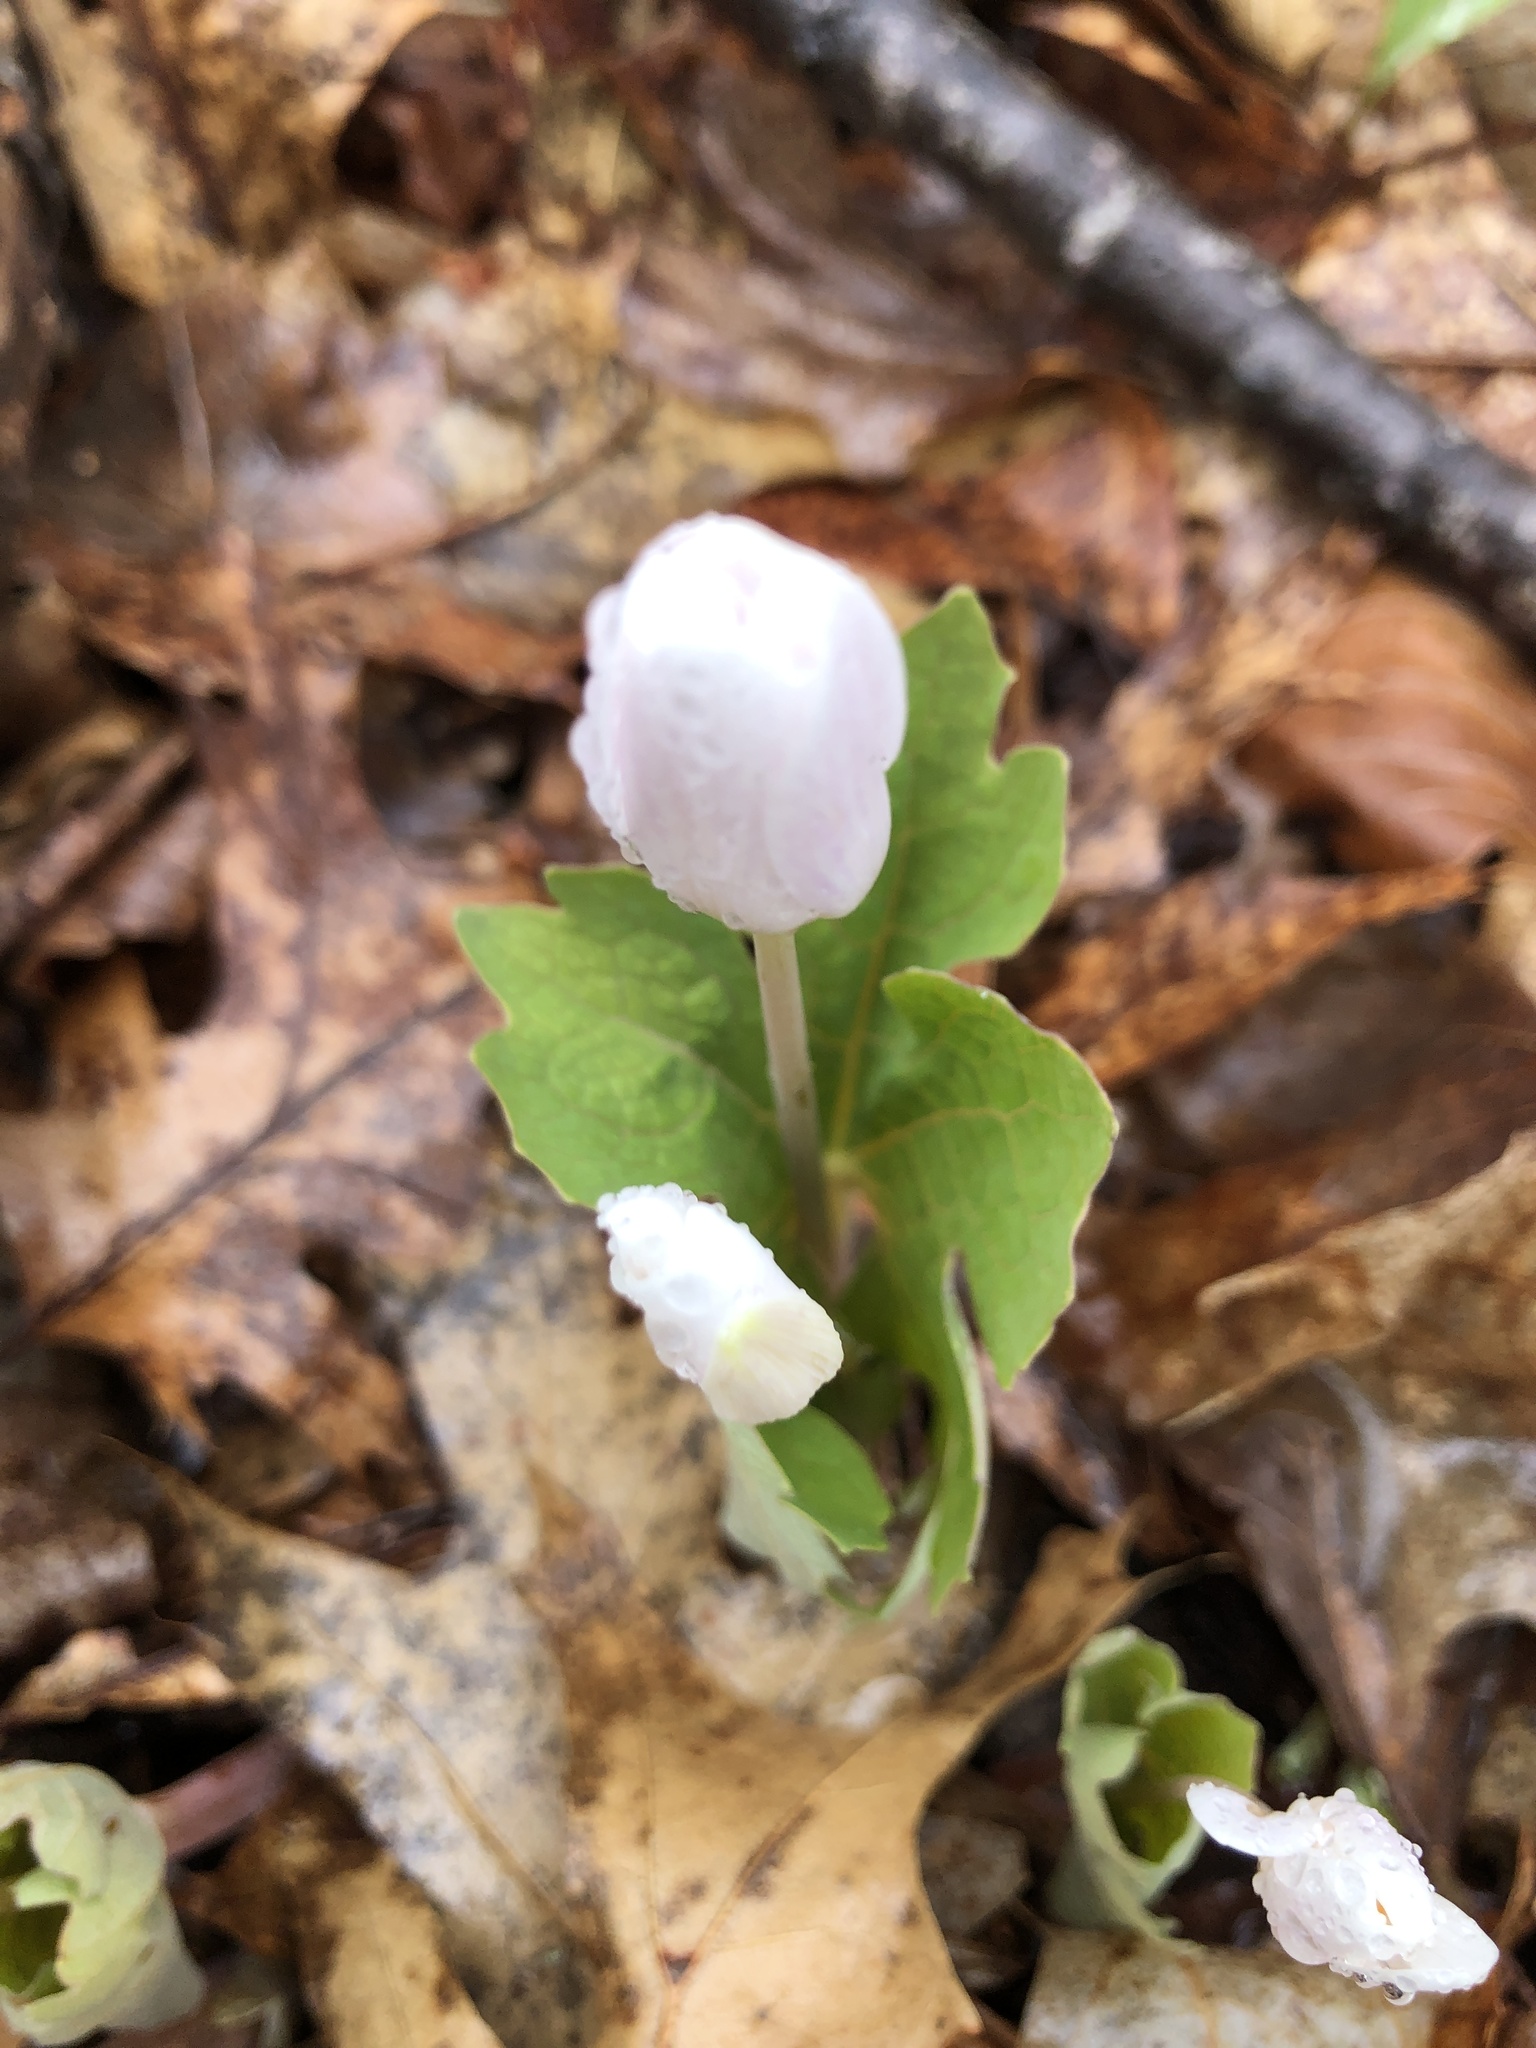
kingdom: Plantae
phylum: Tracheophyta
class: Magnoliopsida
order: Ranunculales
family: Papaveraceae
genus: Sanguinaria
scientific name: Sanguinaria canadensis
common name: Bloodroot
